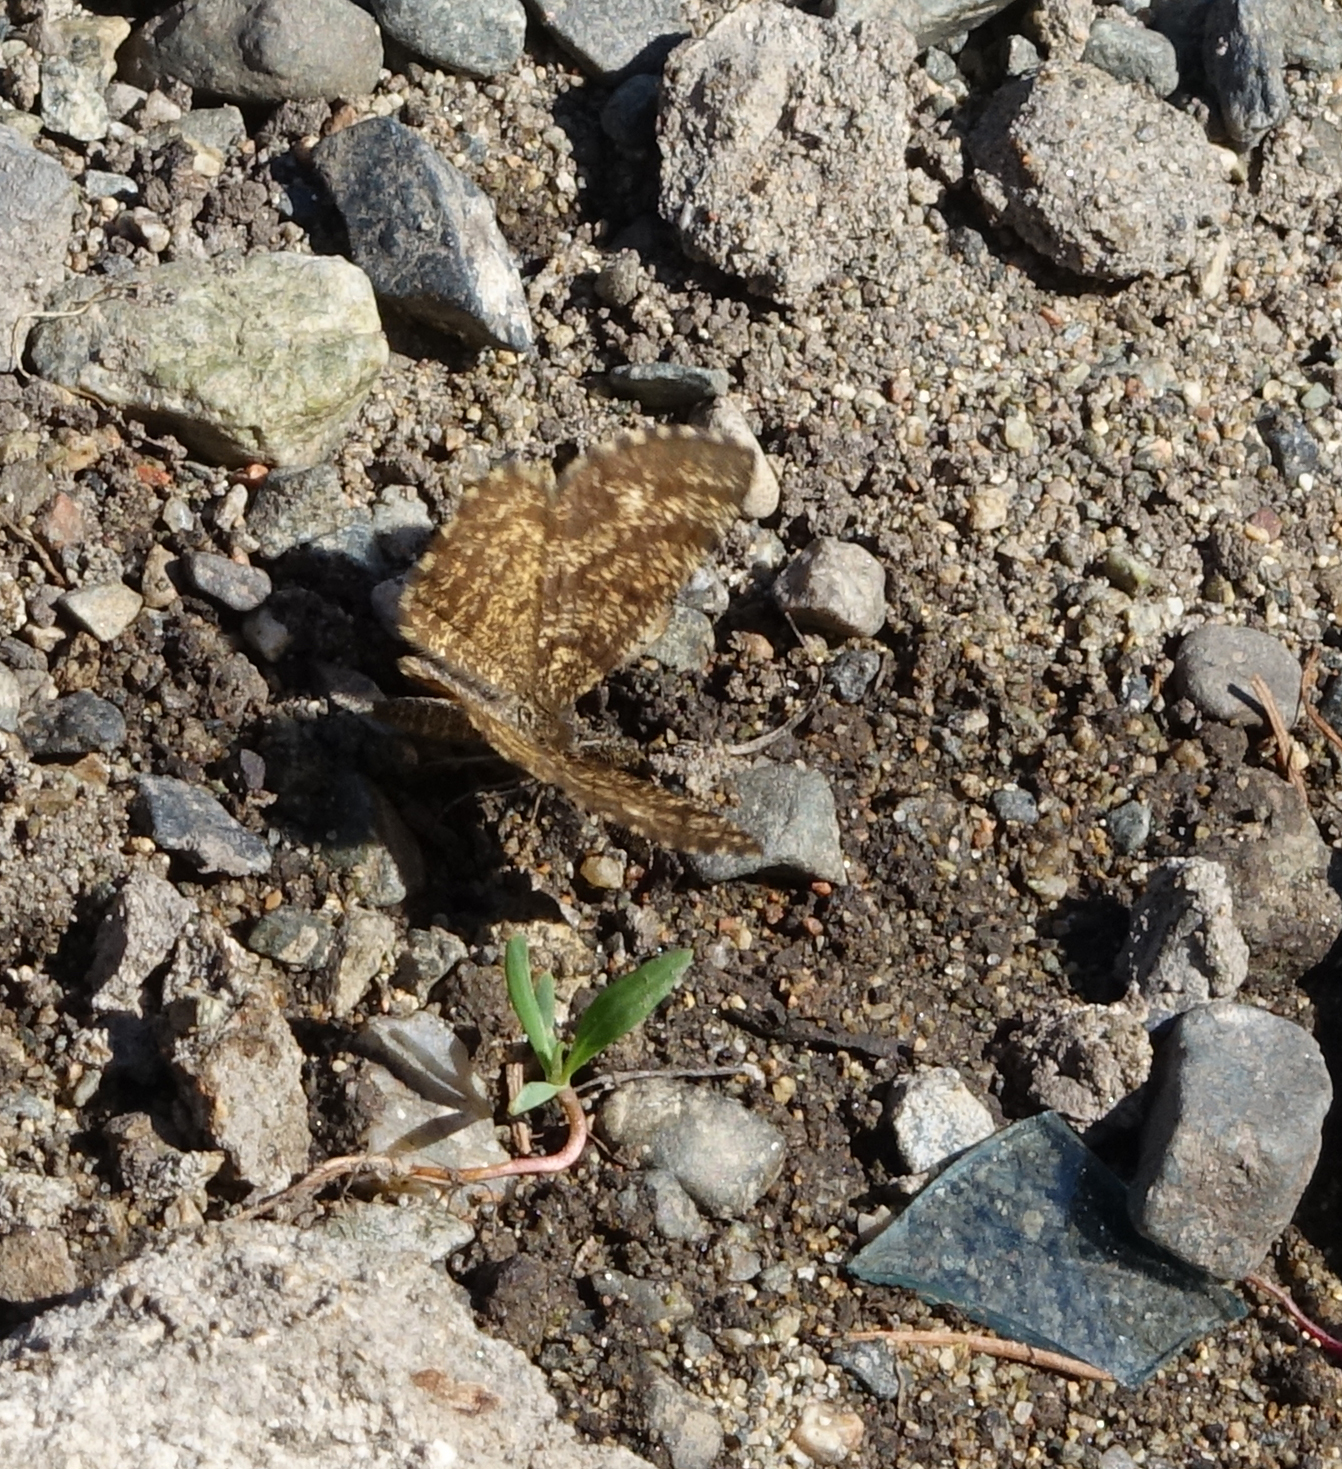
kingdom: Animalia
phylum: Arthropoda
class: Insecta
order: Lepidoptera
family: Geometridae
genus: Ematurga
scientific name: Ematurga atomaria
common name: Common heath
